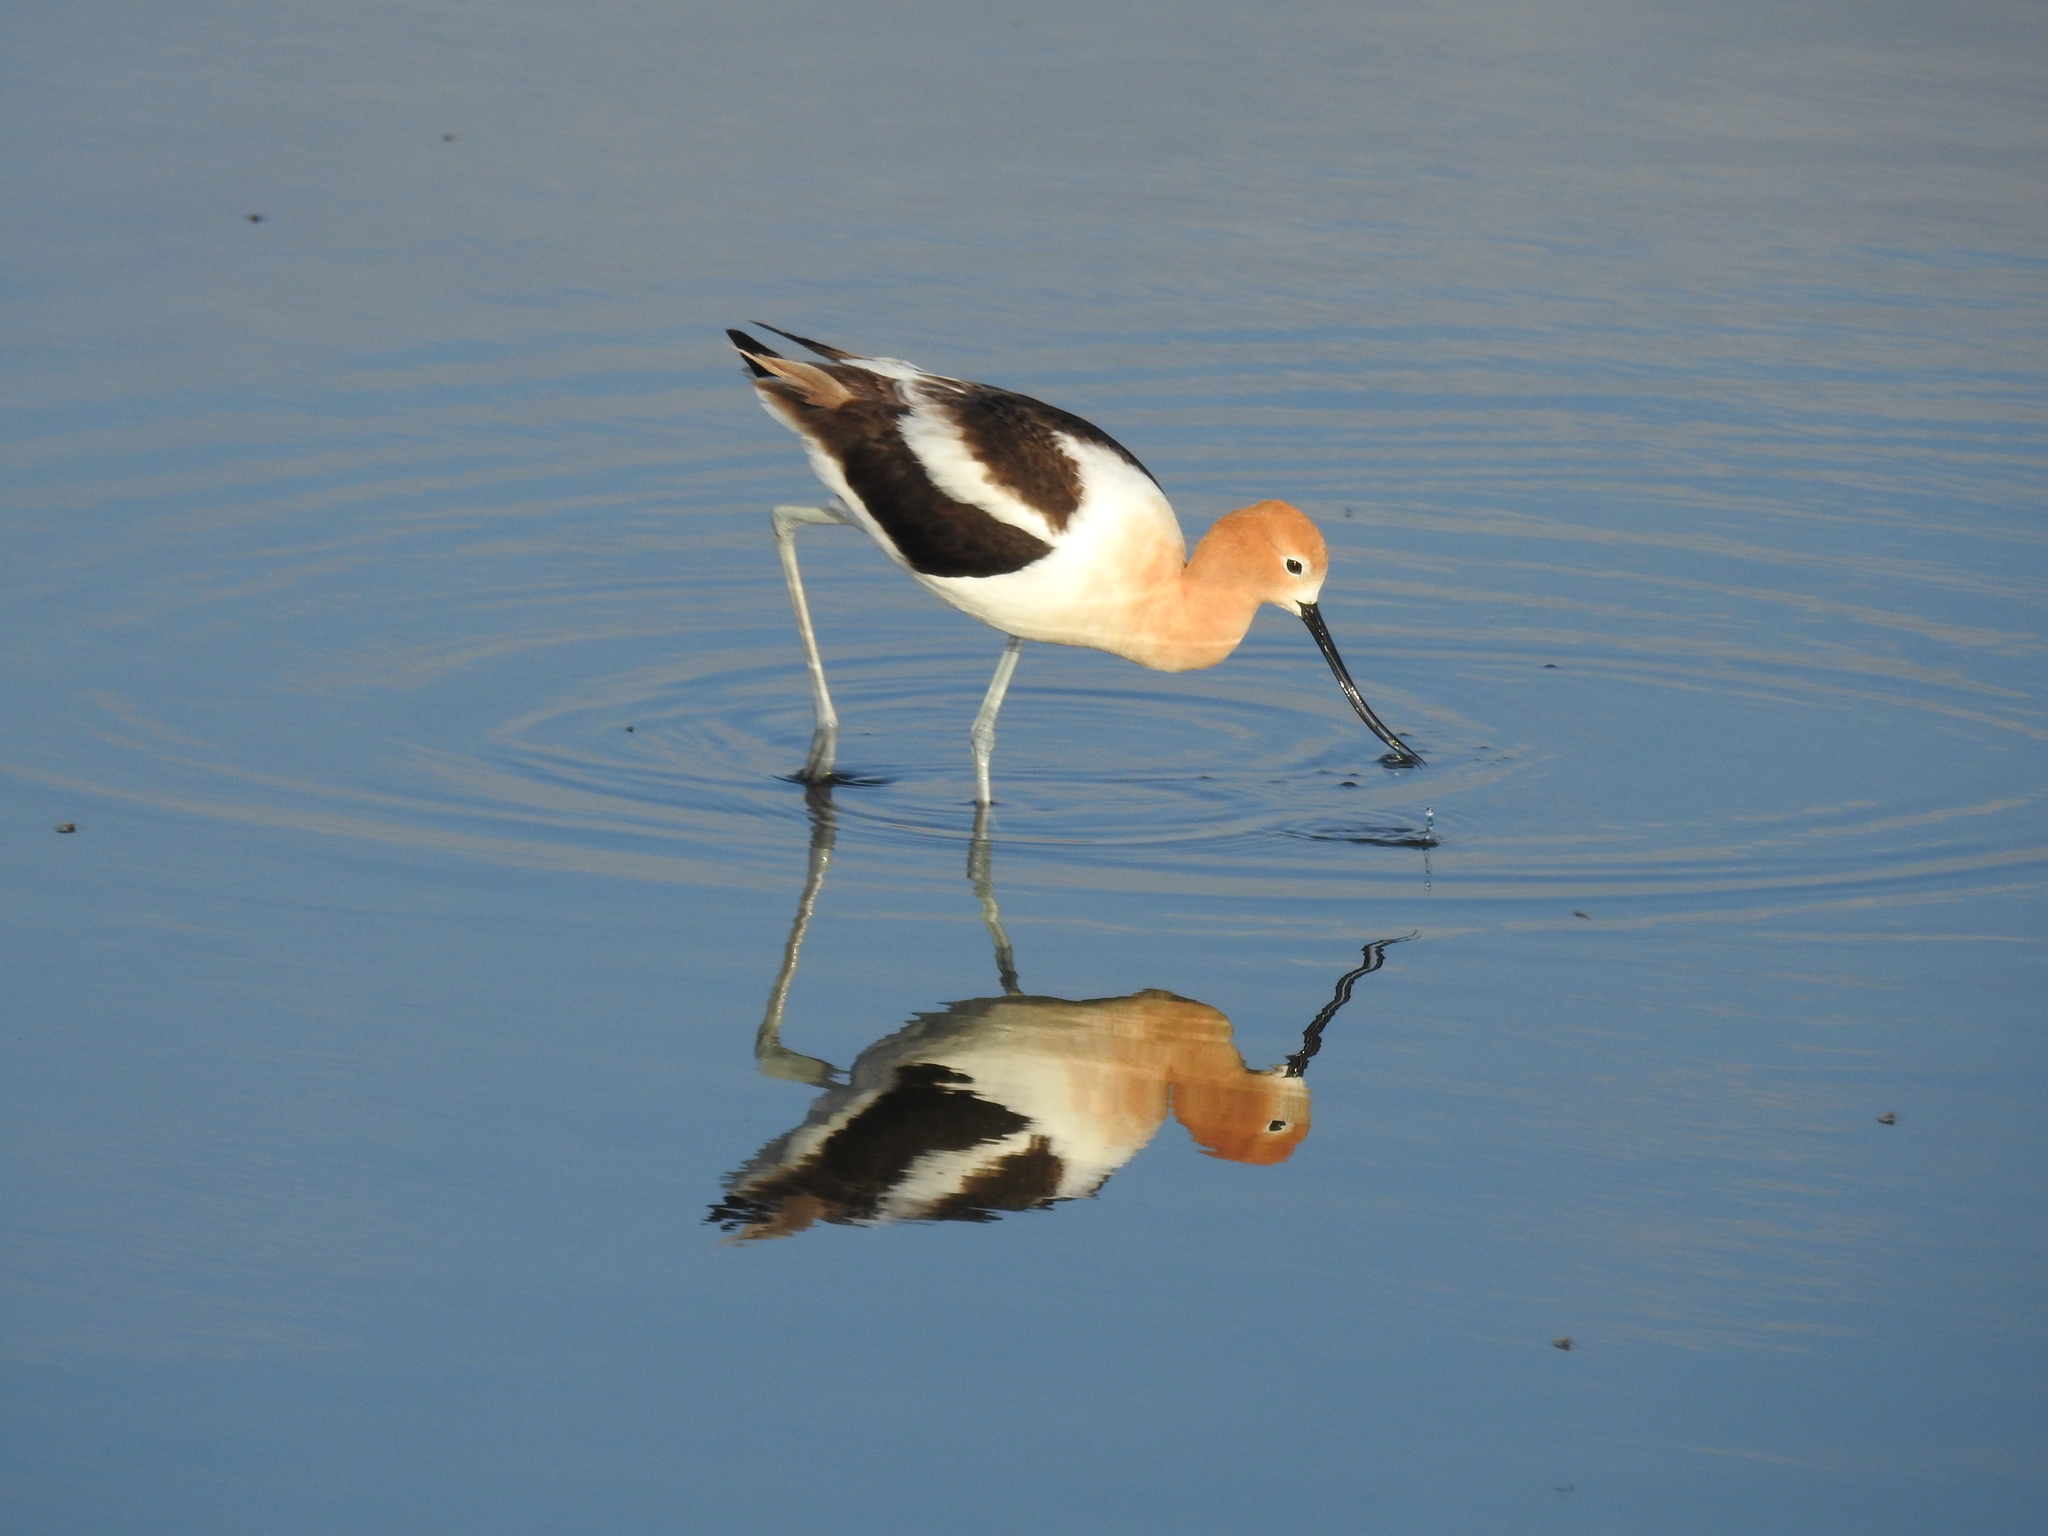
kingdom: Animalia
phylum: Chordata
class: Aves
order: Charadriiformes
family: Recurvirostridae
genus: Recurvirostra
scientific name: Recurvirostra americana
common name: American avocet
